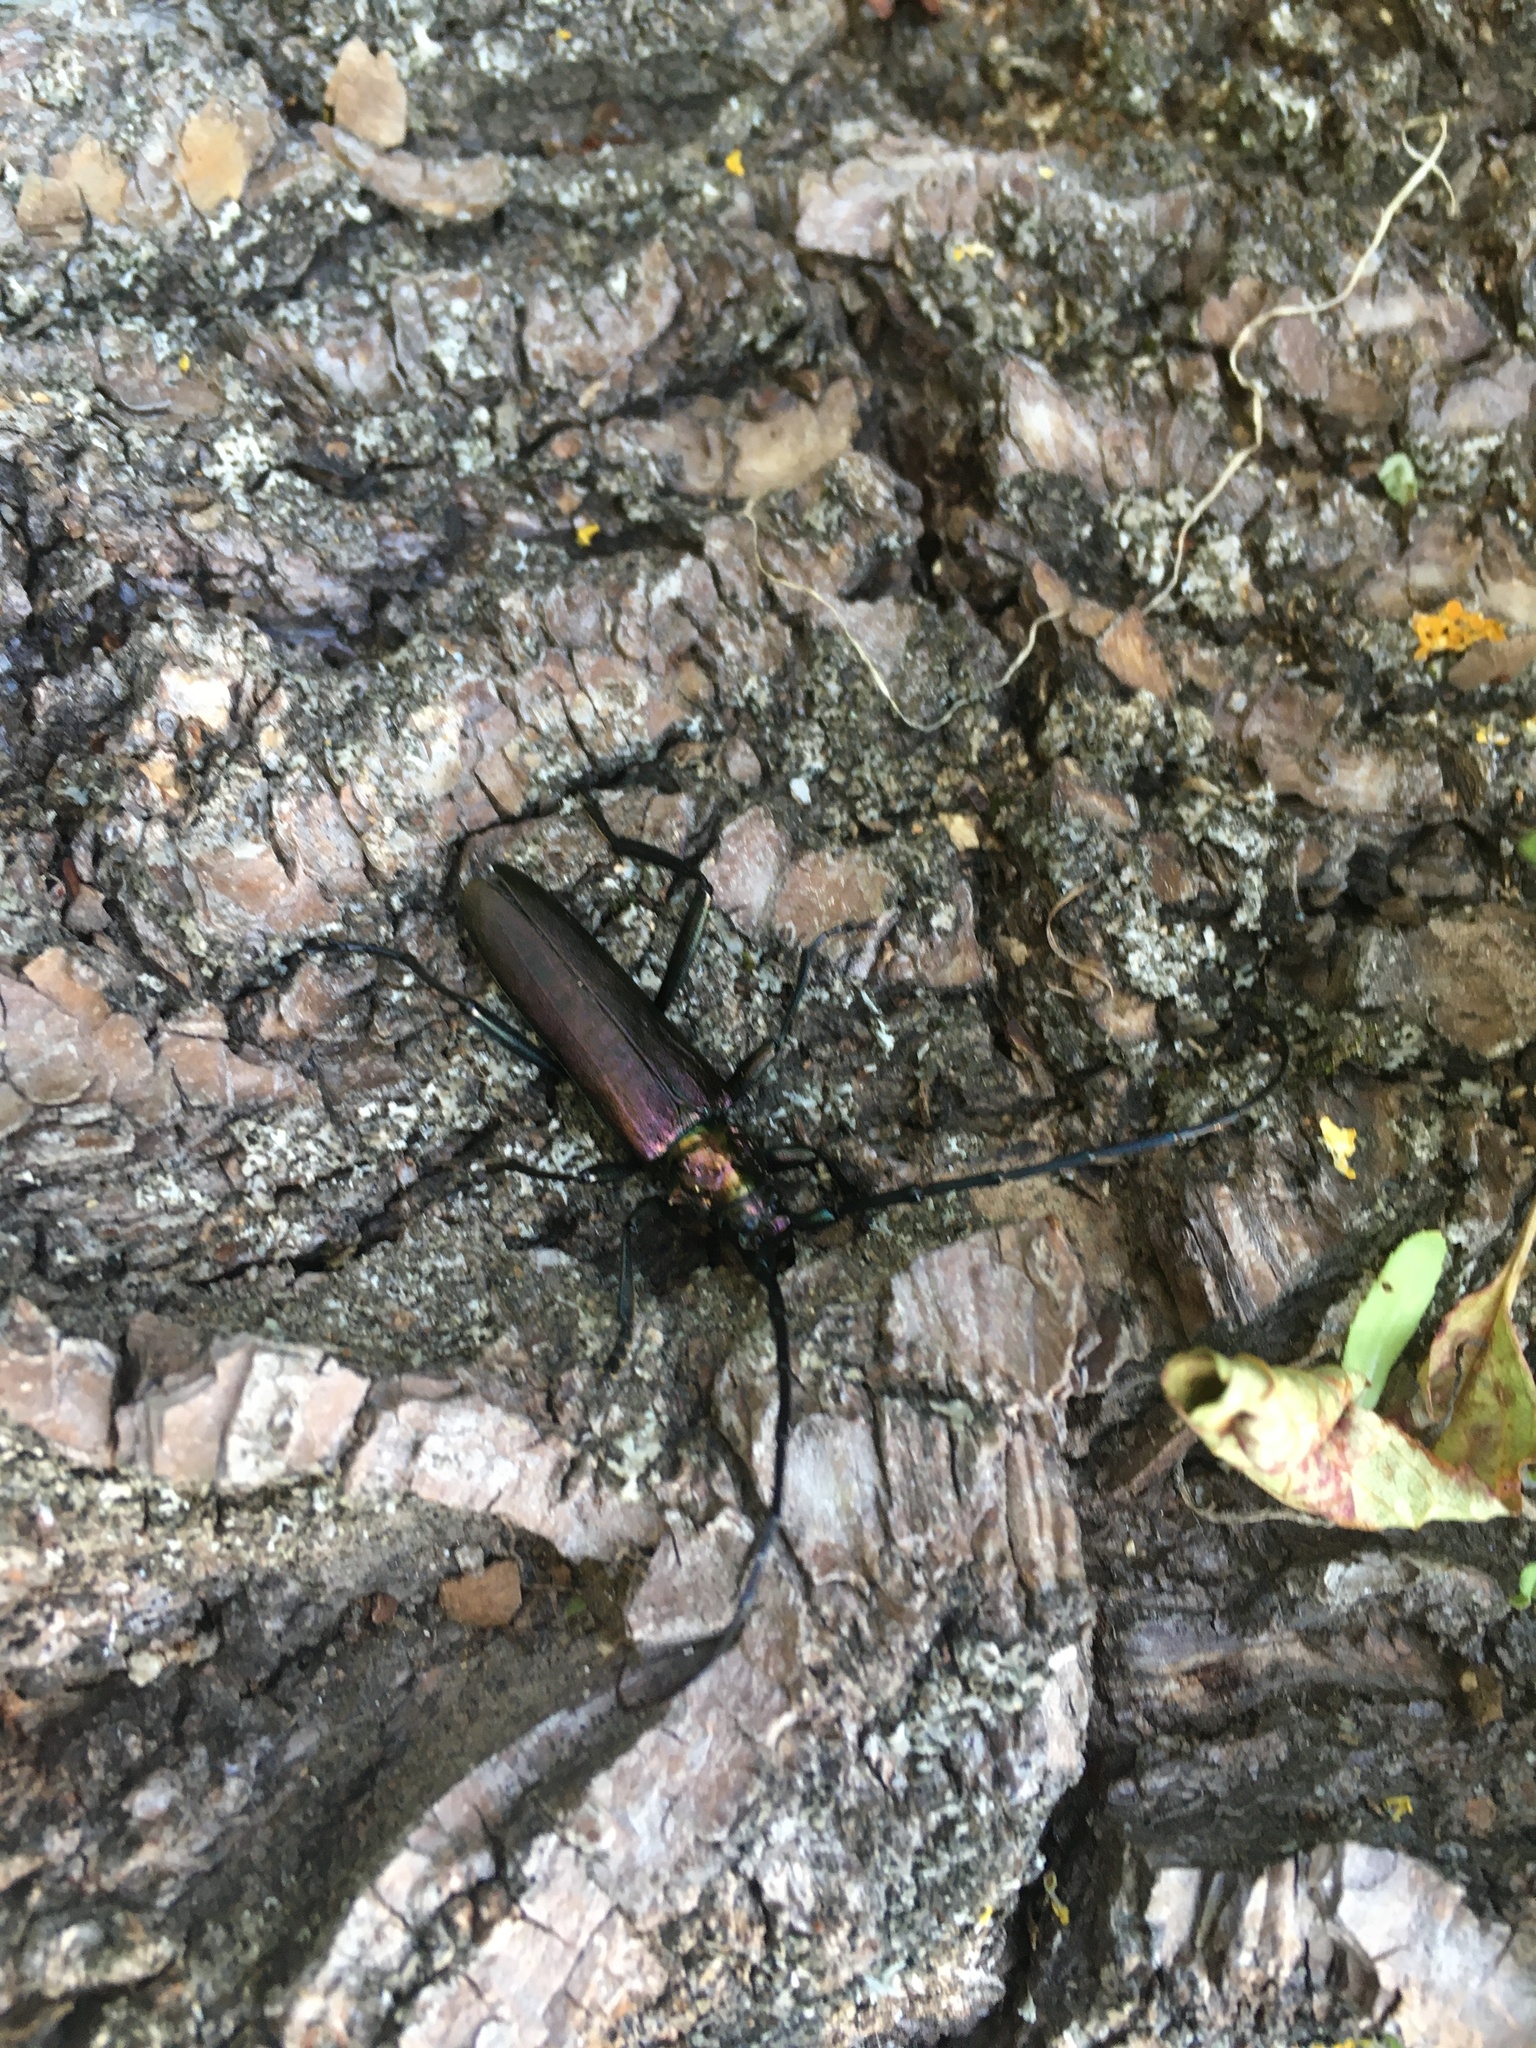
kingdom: Animalia
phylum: Arthropoda
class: Insecta
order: Coleoptera
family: Cerambycidae
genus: Aromia
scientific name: Aromia moschata
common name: Musk beetle
